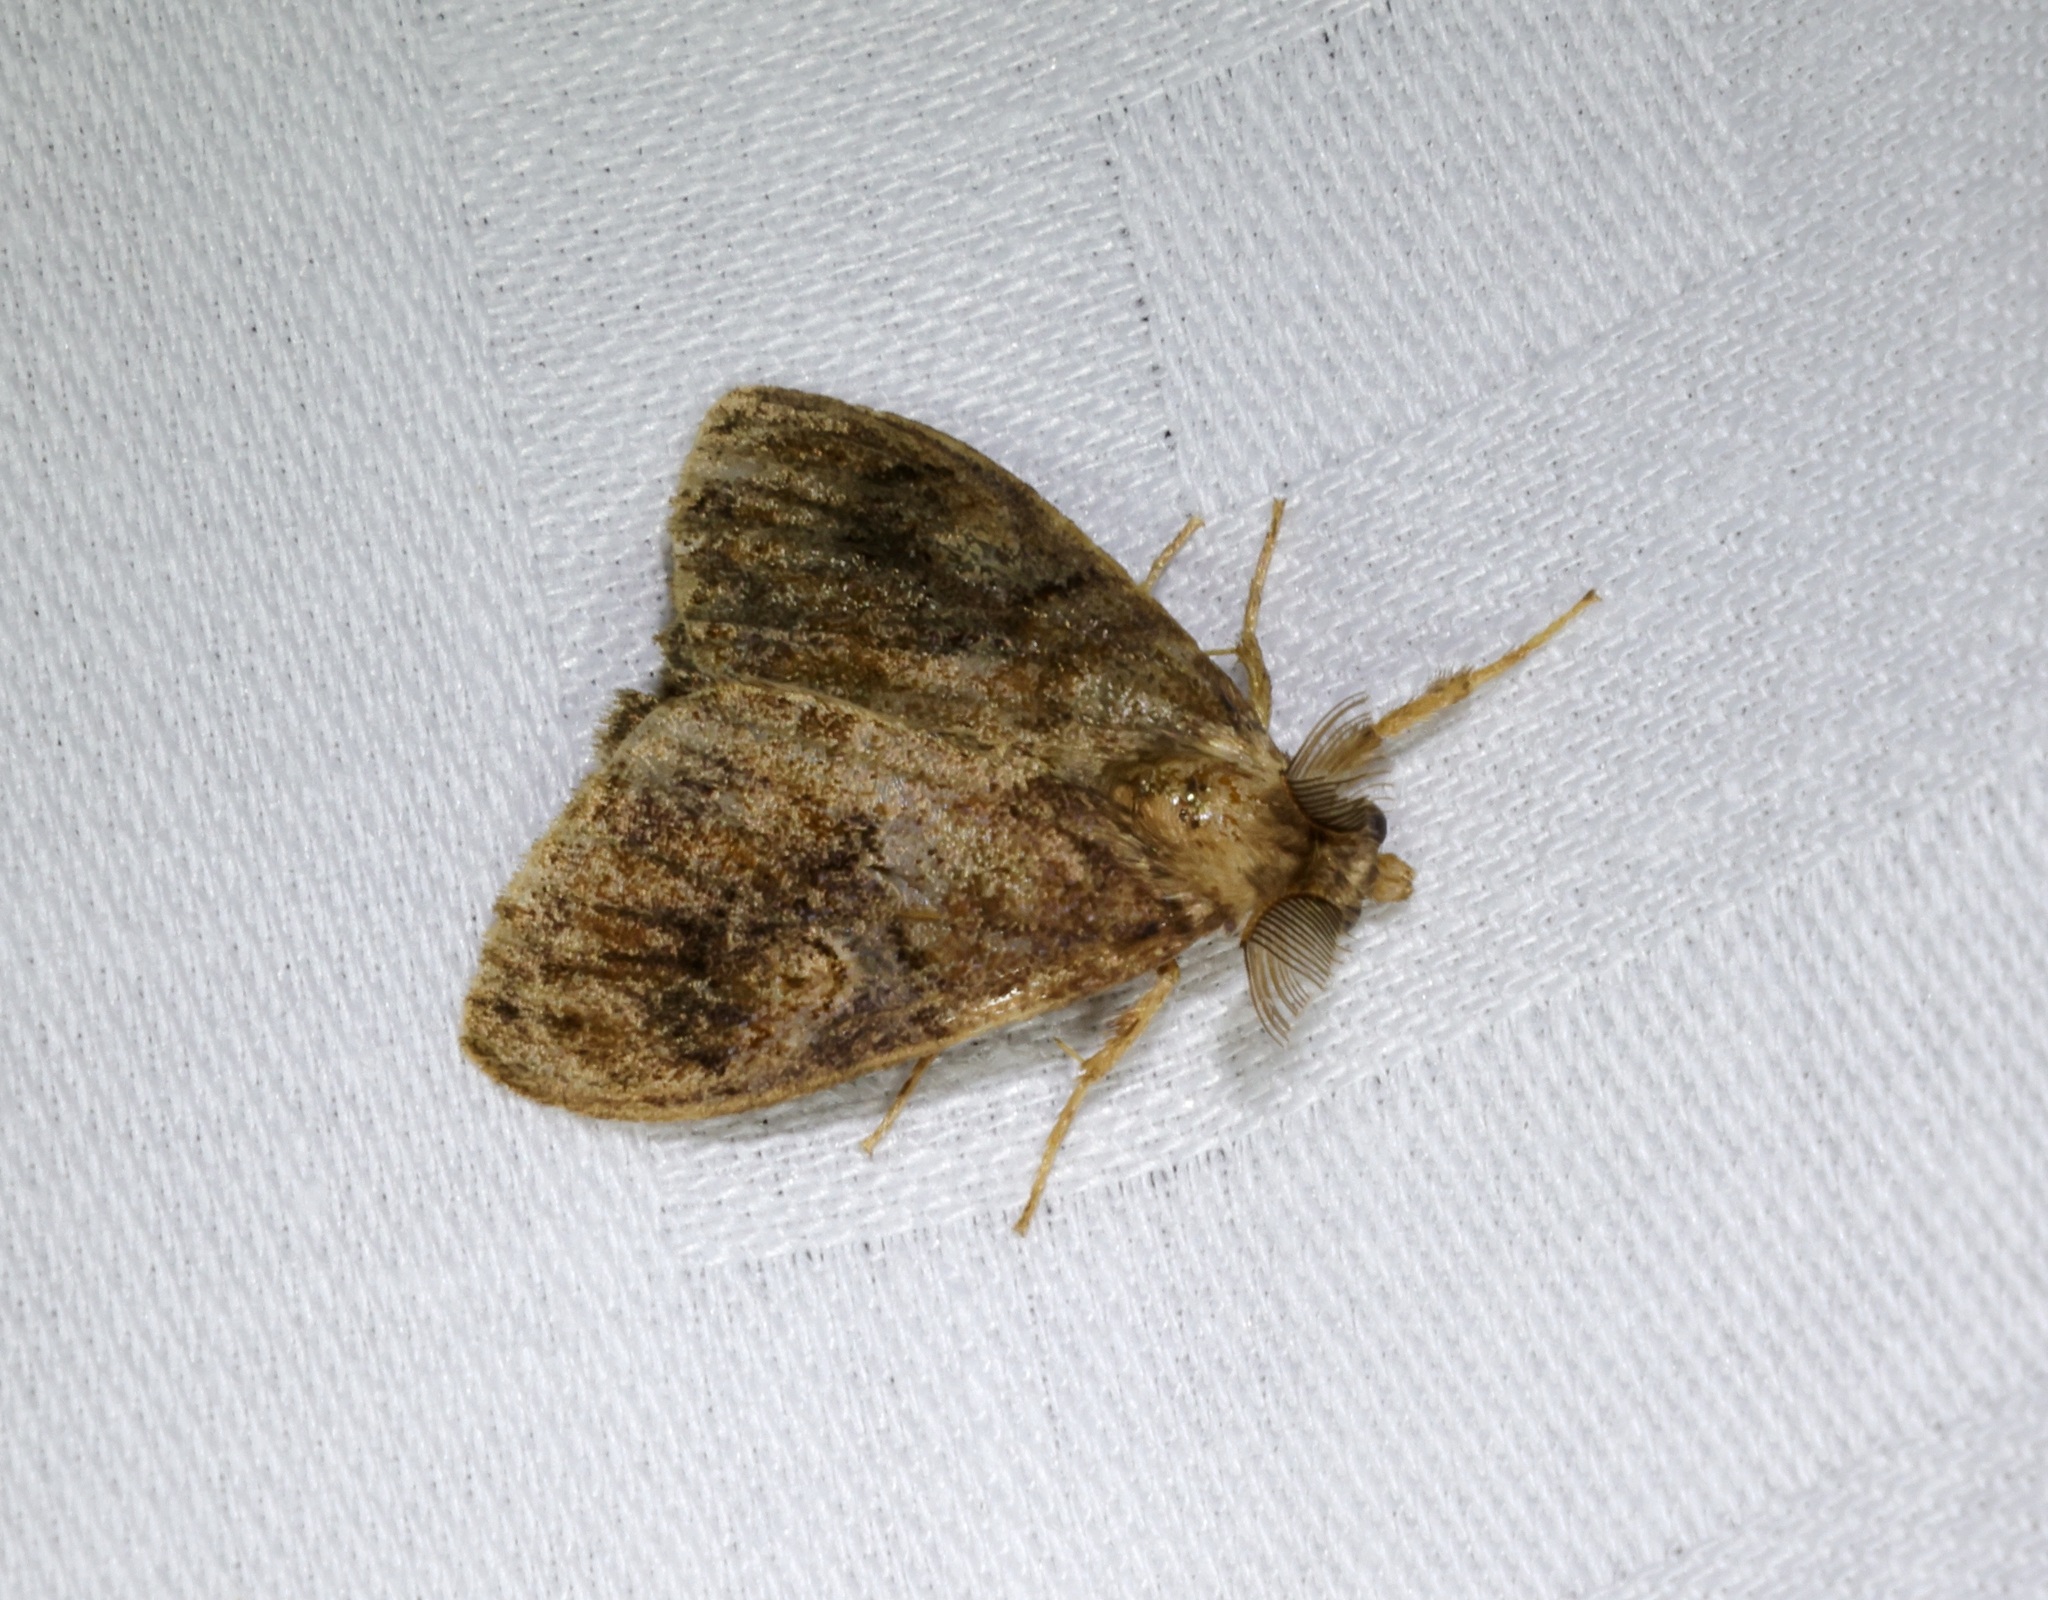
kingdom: Animalia
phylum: Arthropoda
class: Insecta
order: Lepidoptera
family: Erebidae
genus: Orgyia
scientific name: Orgyia postica
